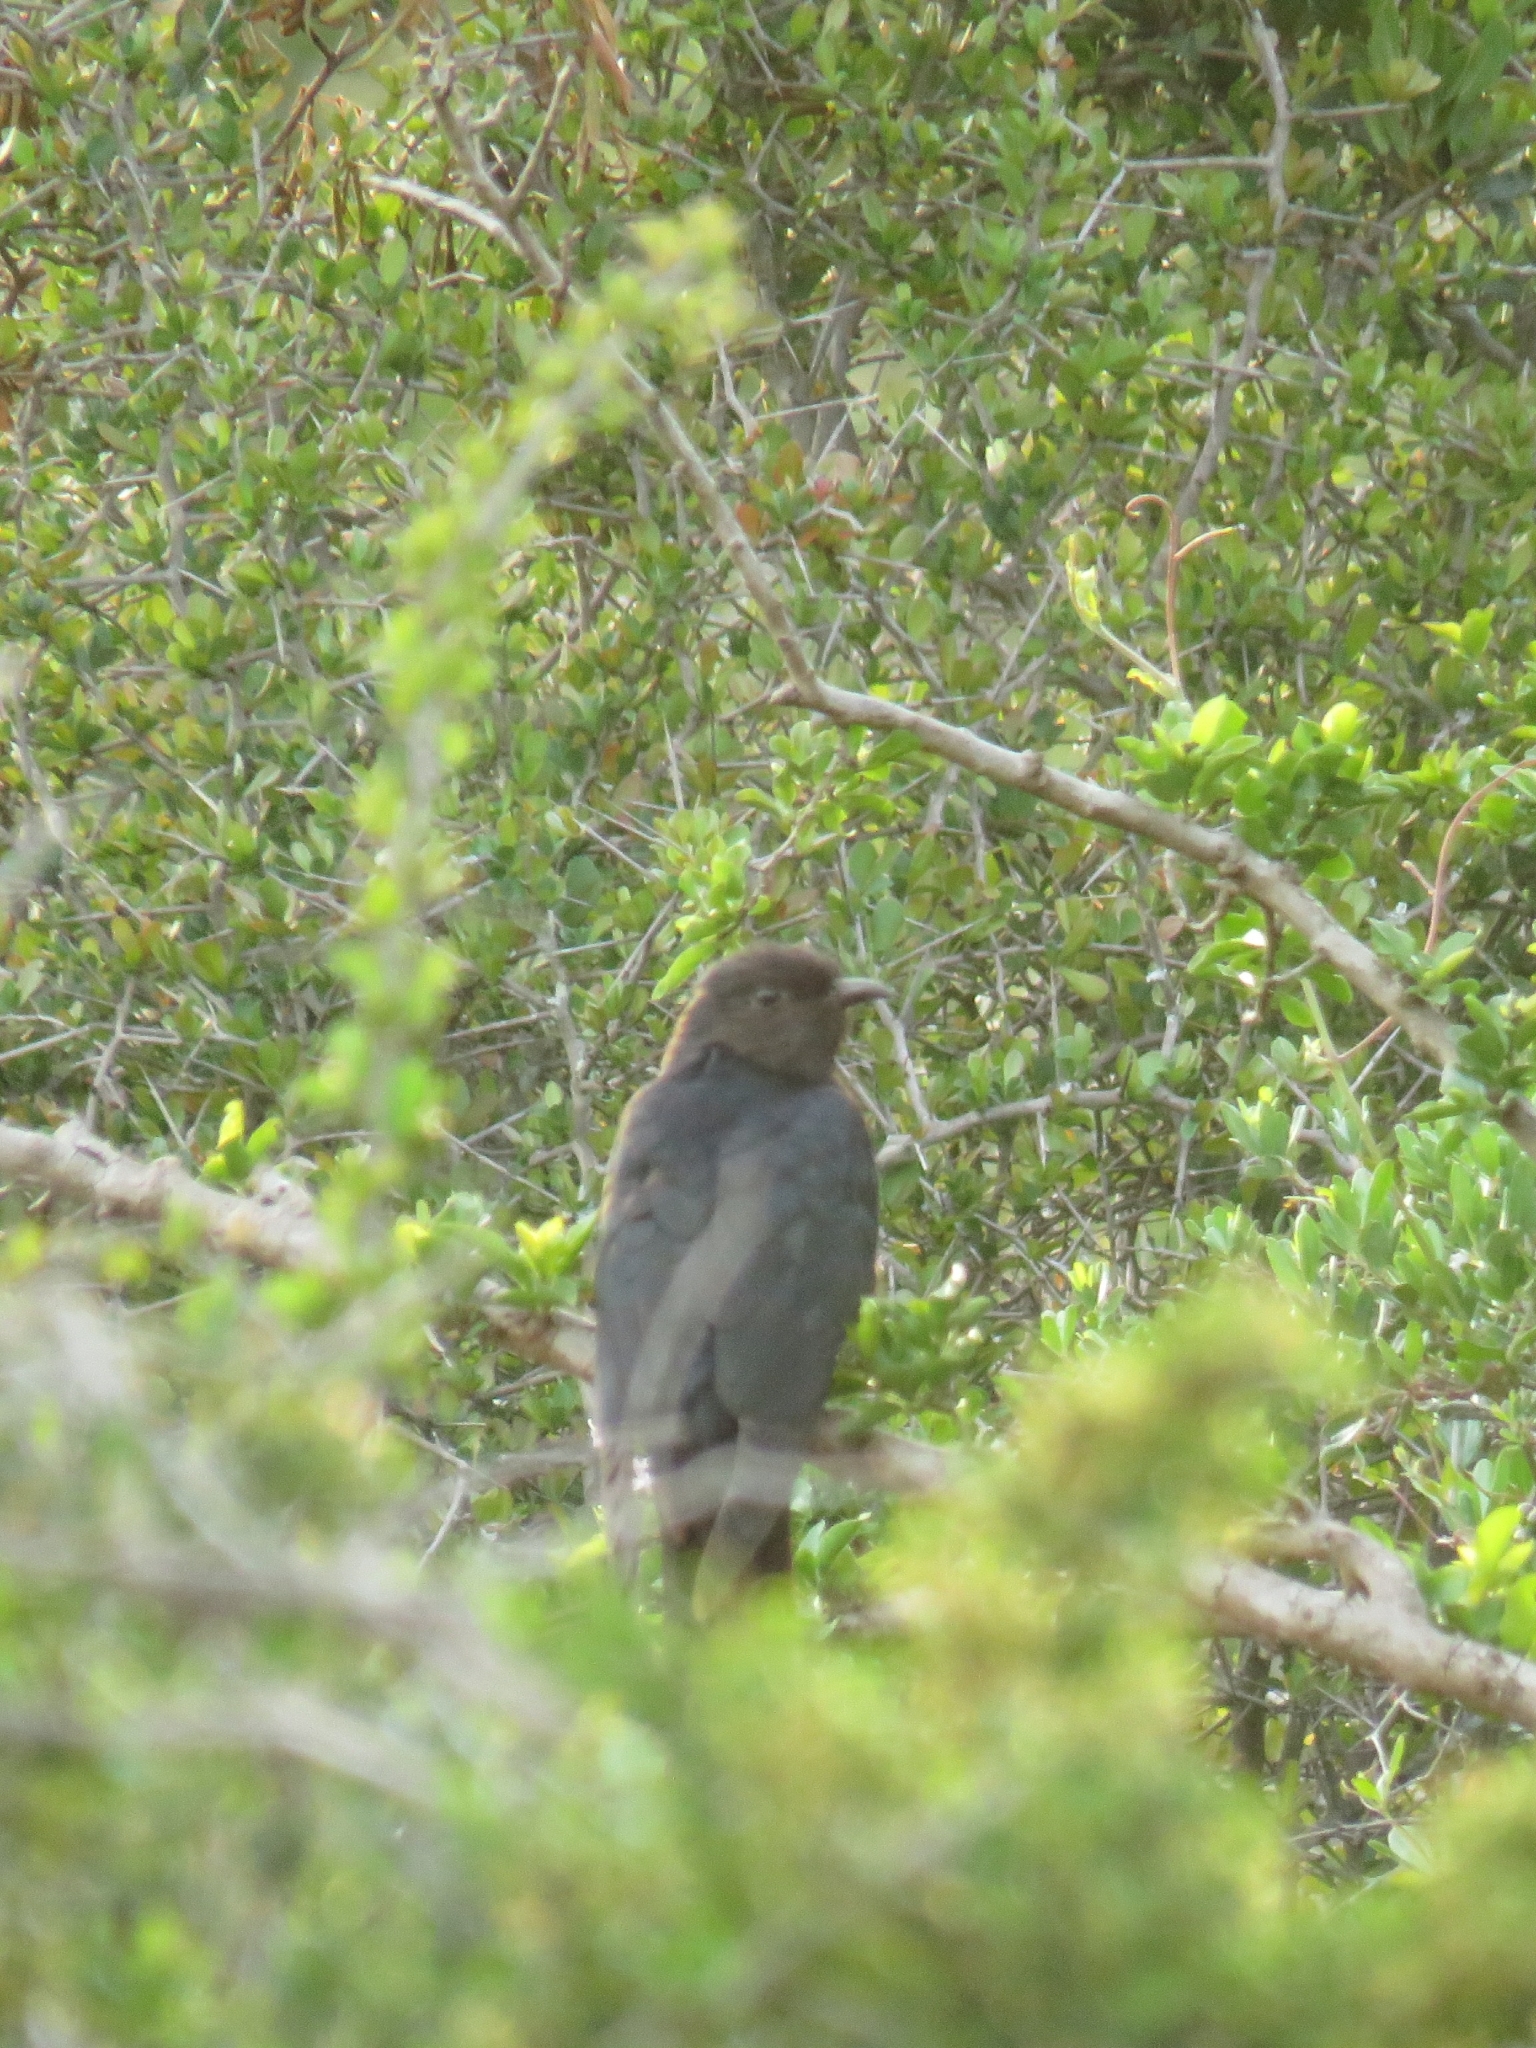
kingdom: Animalia
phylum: Chordata
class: Aves
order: Cuculiformes
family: Cuculidae
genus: Cuculus
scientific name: Cuculus clamosus
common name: Black cuckoo
